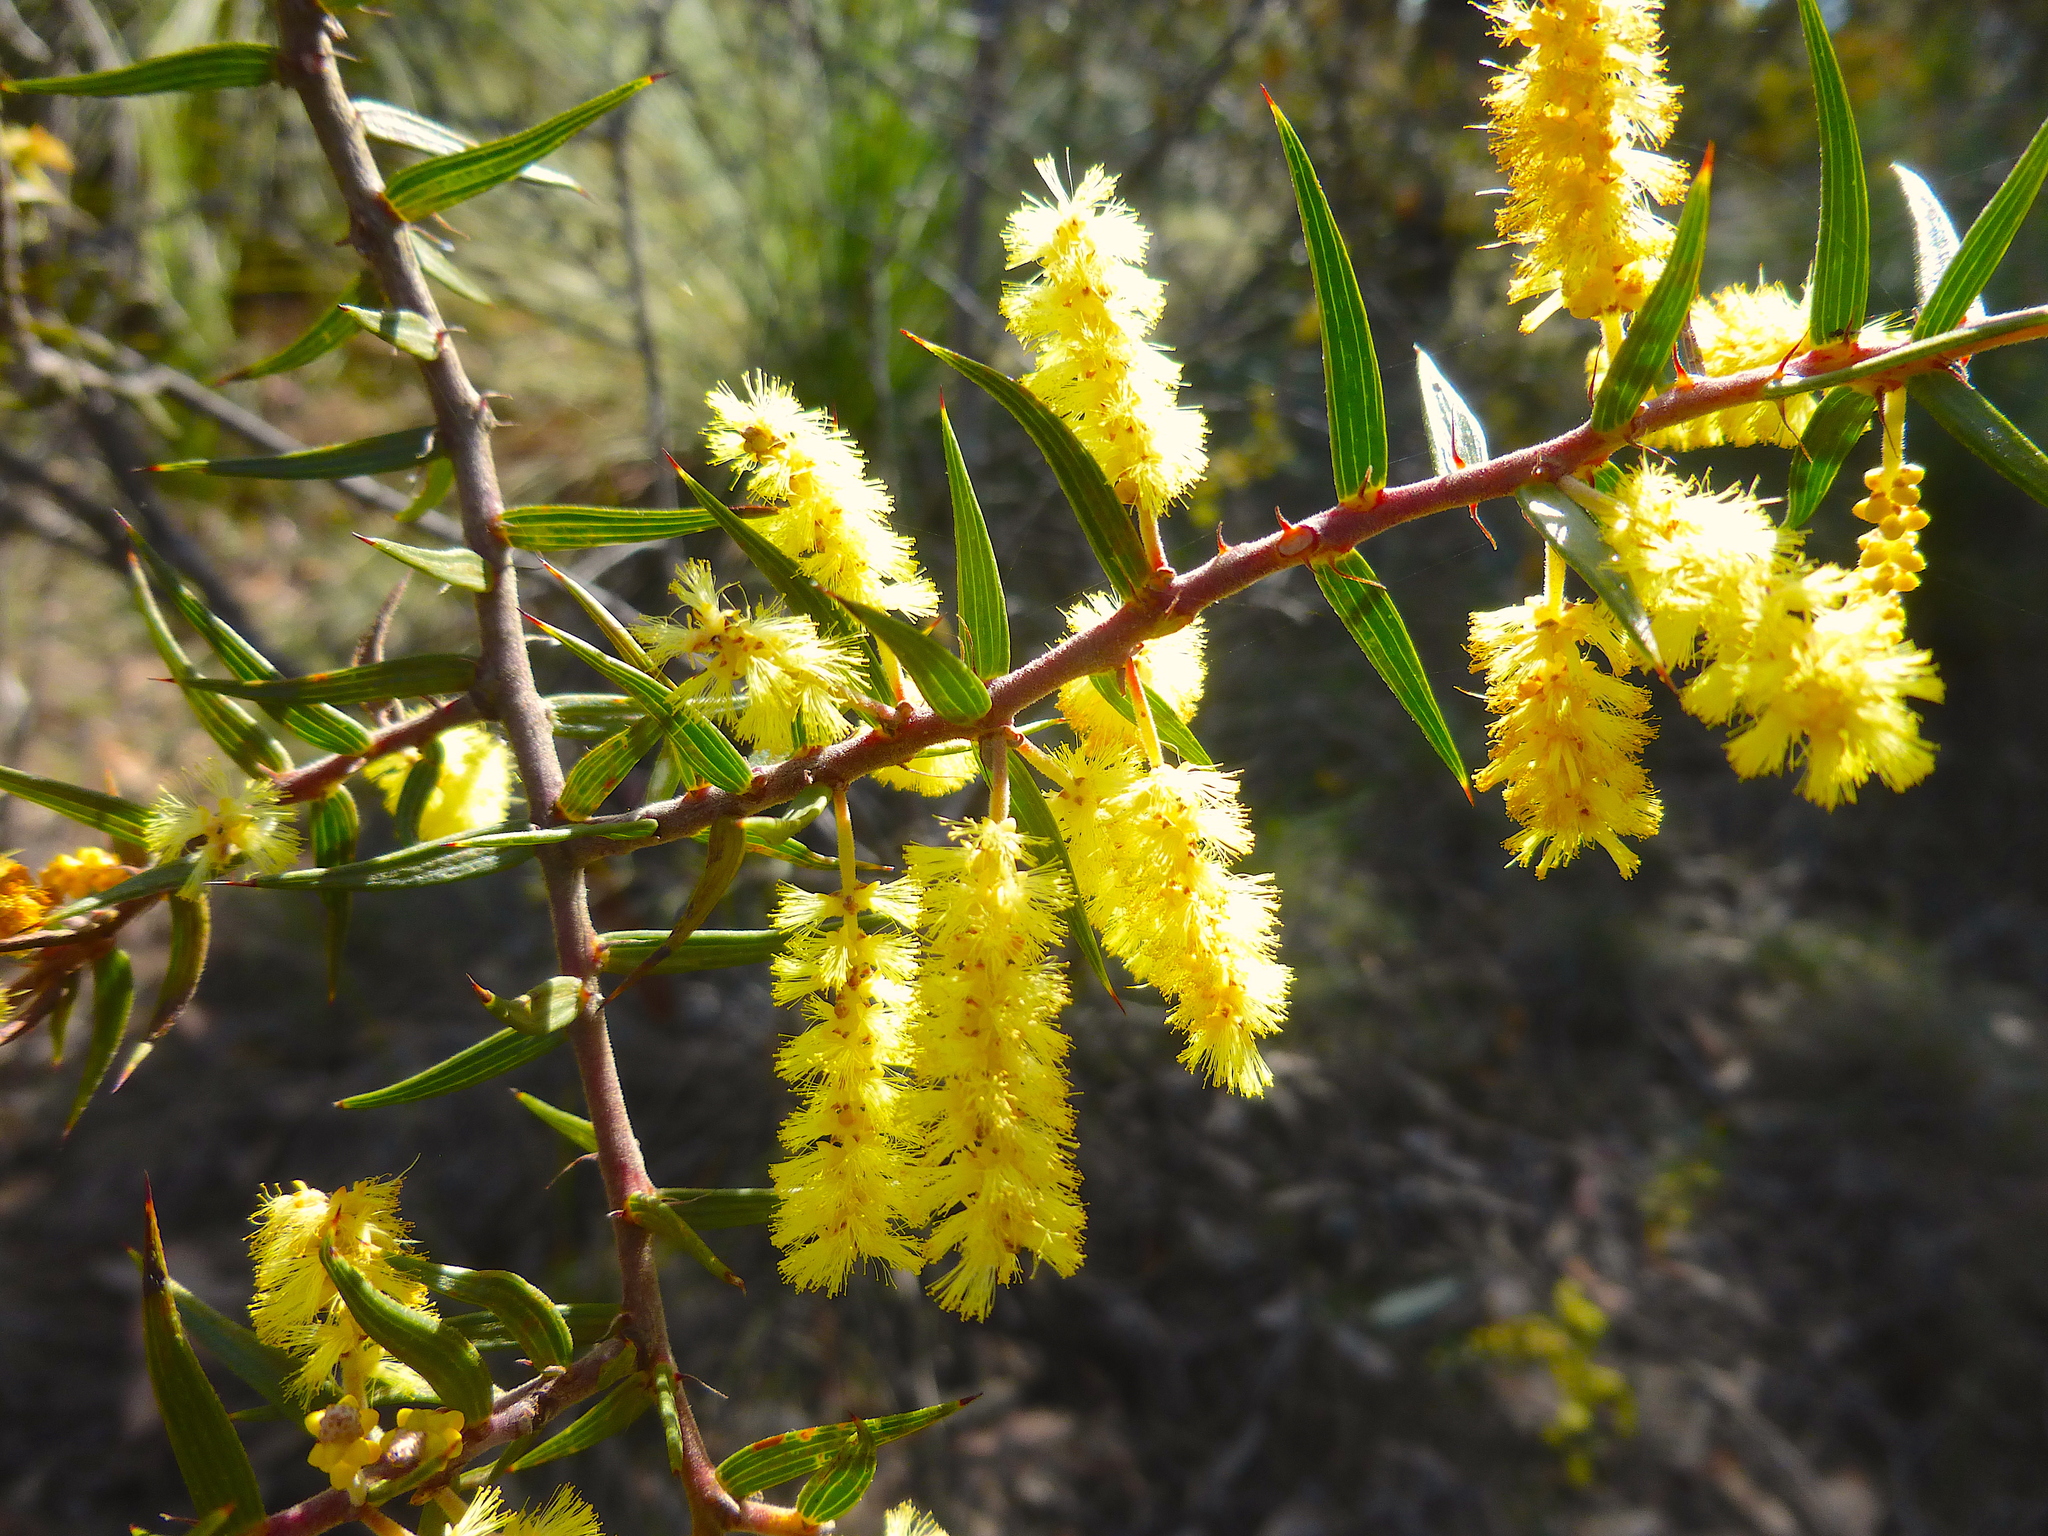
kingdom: Plantae
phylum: Tracheophyta
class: Magnoliopsida
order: Fabales
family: Fabaceae
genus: Acacia
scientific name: Acacia oxycedrus
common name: Spike wattle
